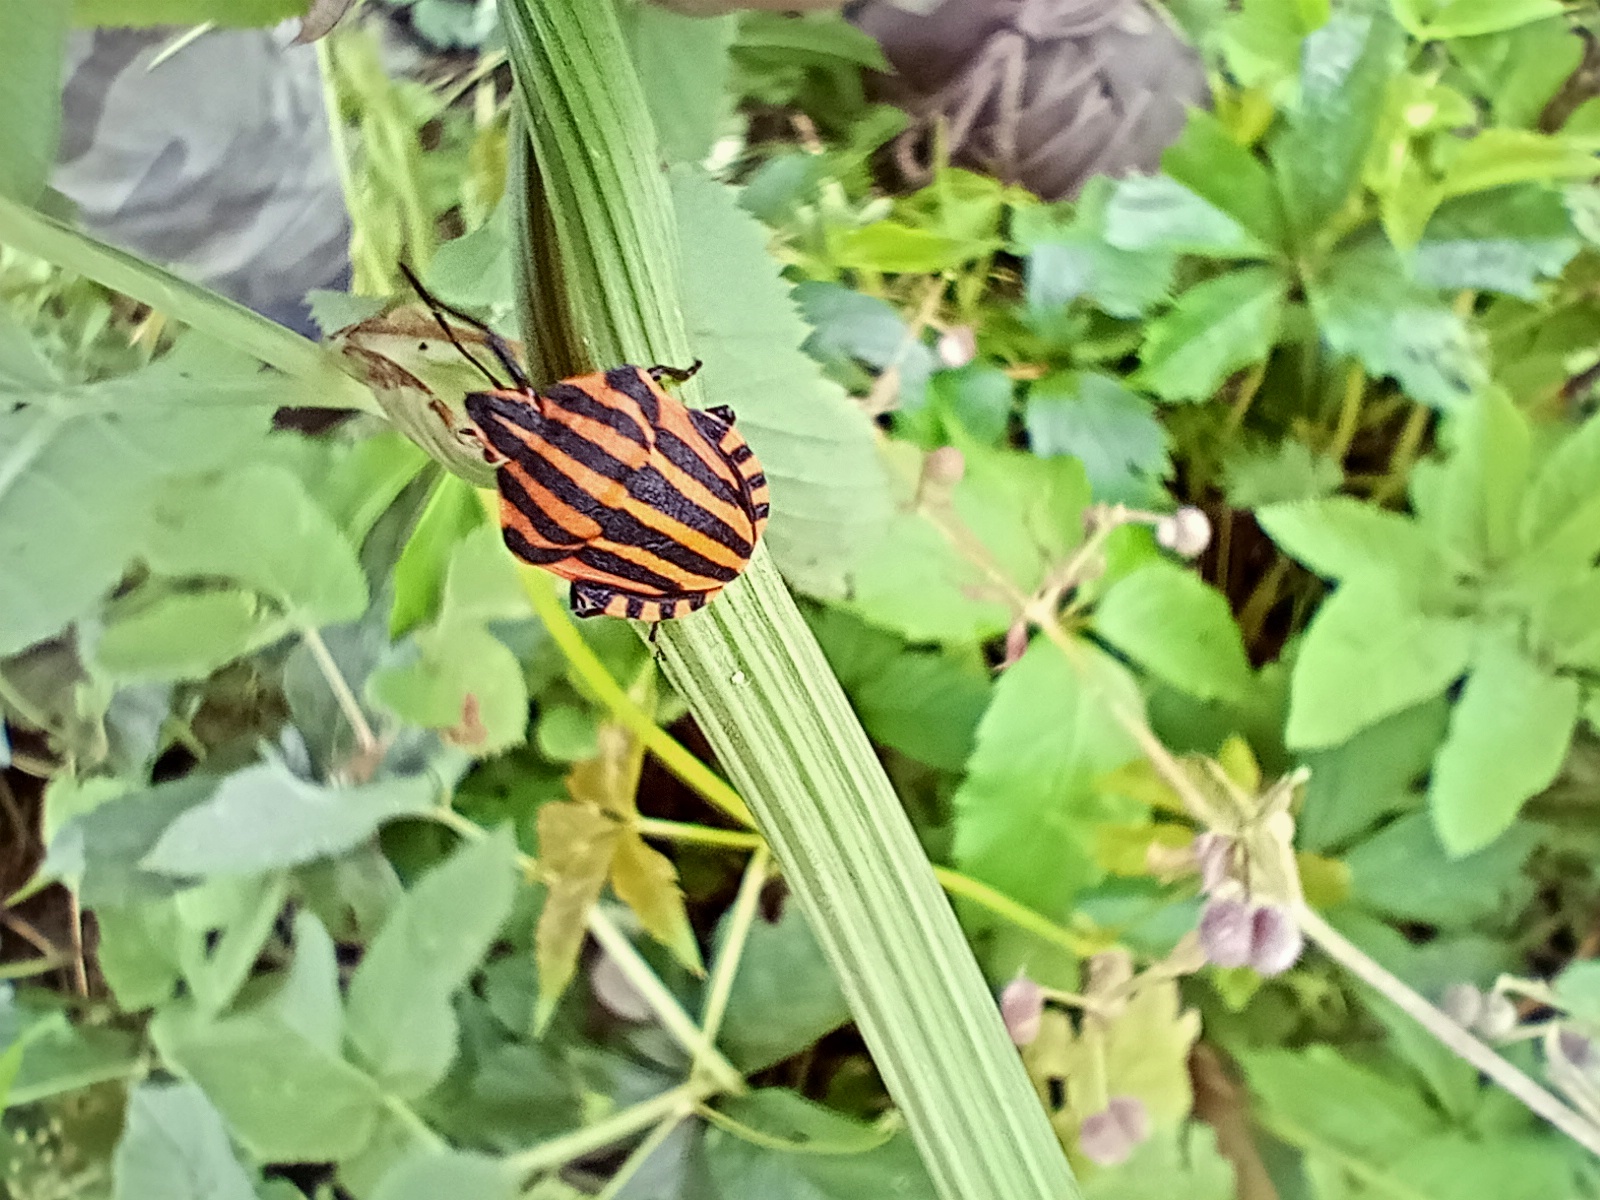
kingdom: Animalia
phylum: Arthropoda
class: Insecta
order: Hemiptera
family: Pentatomidae
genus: Graphosoma
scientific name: Graphosoma italicum
